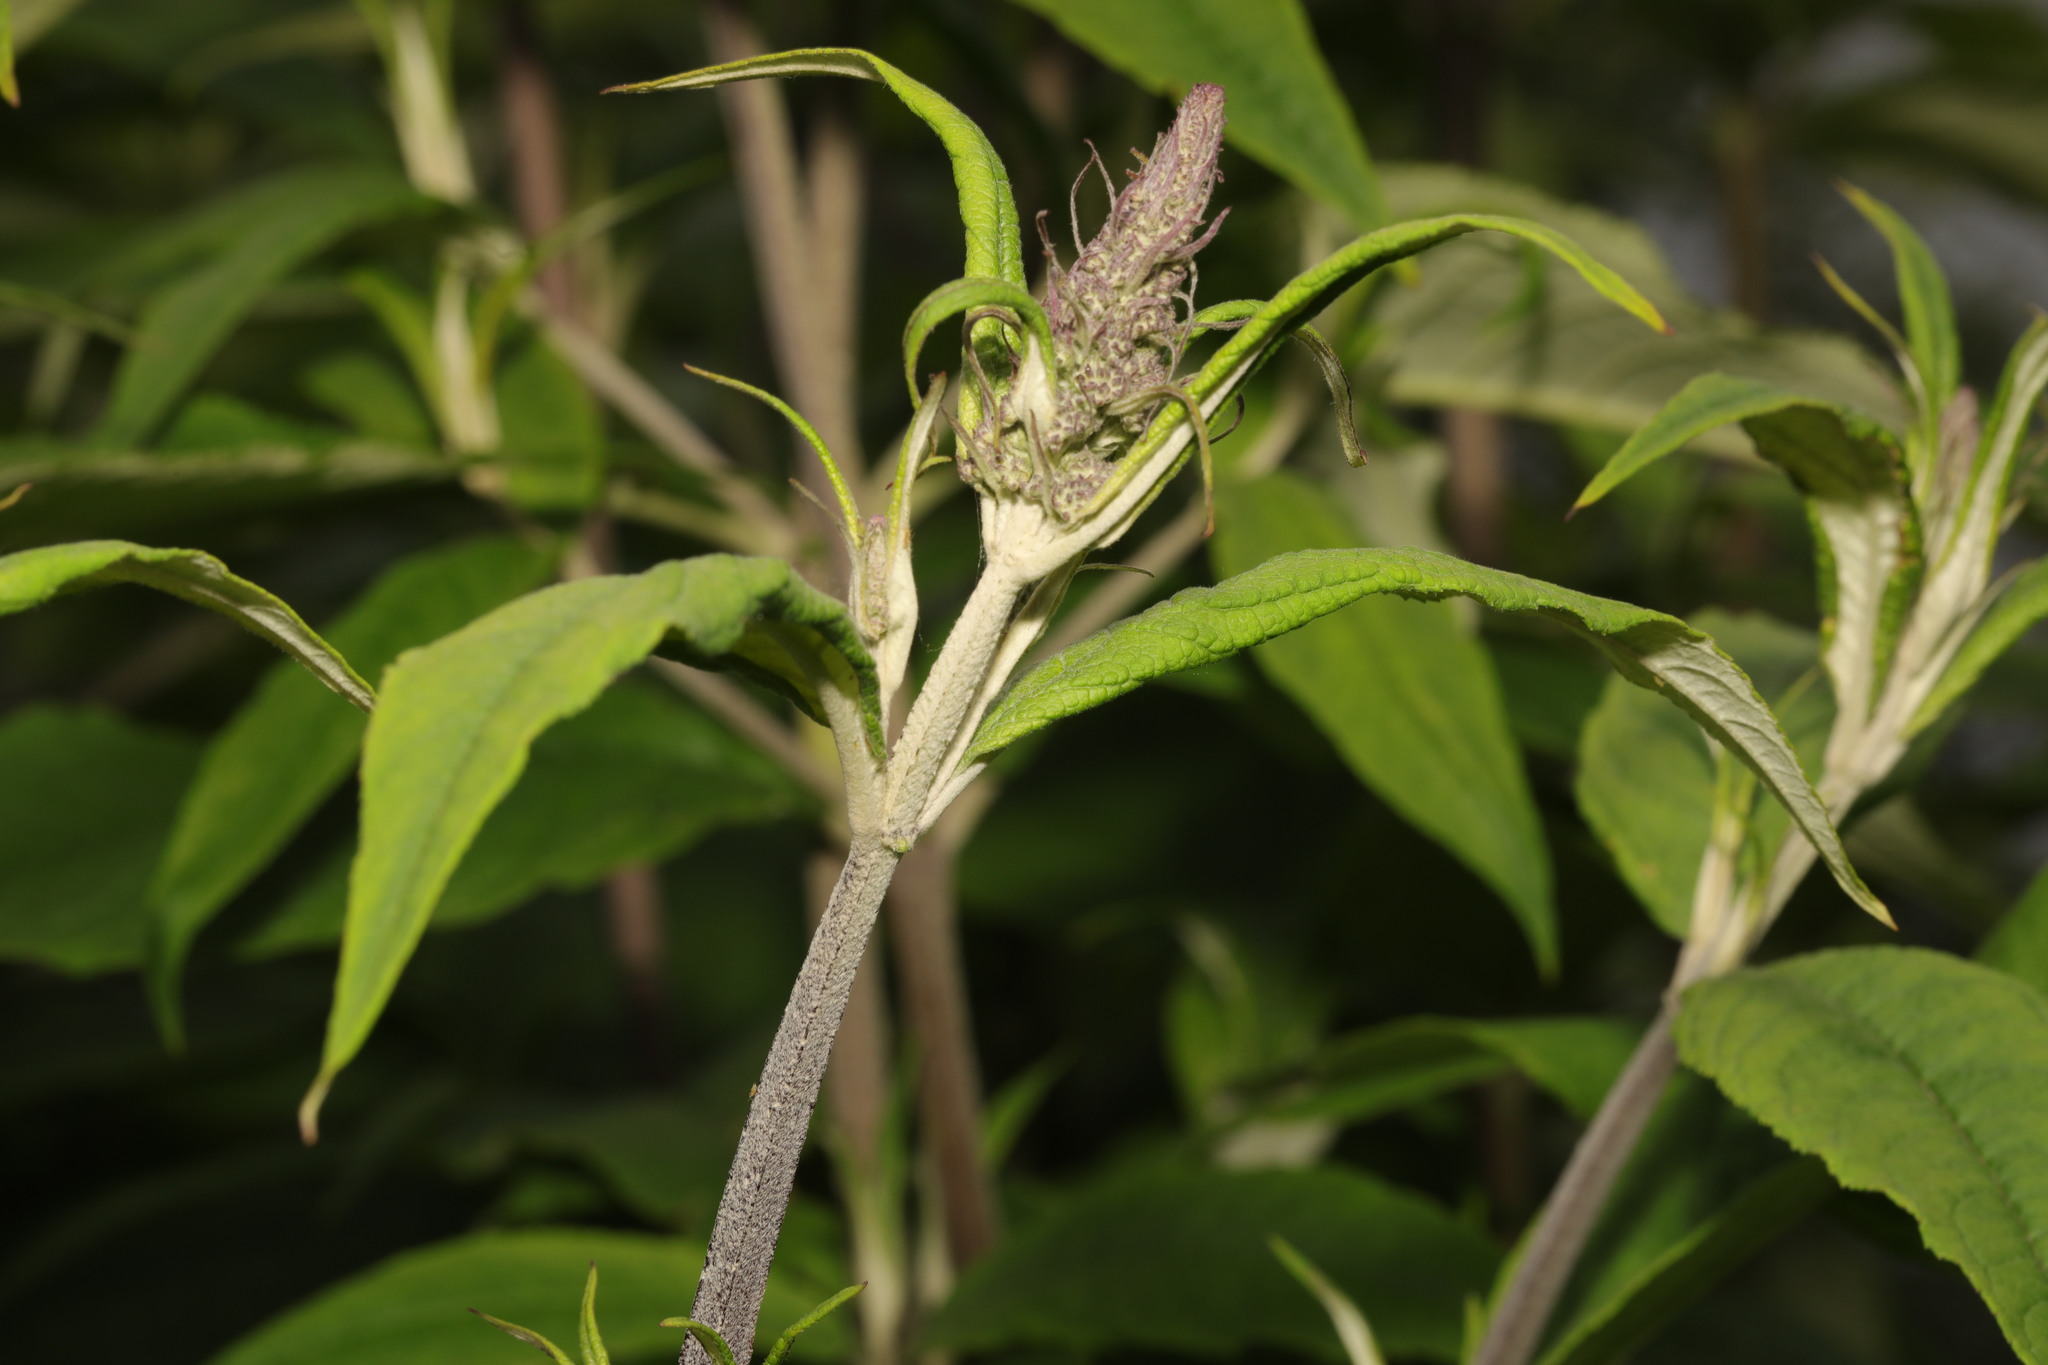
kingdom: Plantae
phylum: Tracheophyta
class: Magnoliopsida
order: Lamiales
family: Scrophulariaceae
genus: Buddleja
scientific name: Buddleja davidii
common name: Butterfly-bush
